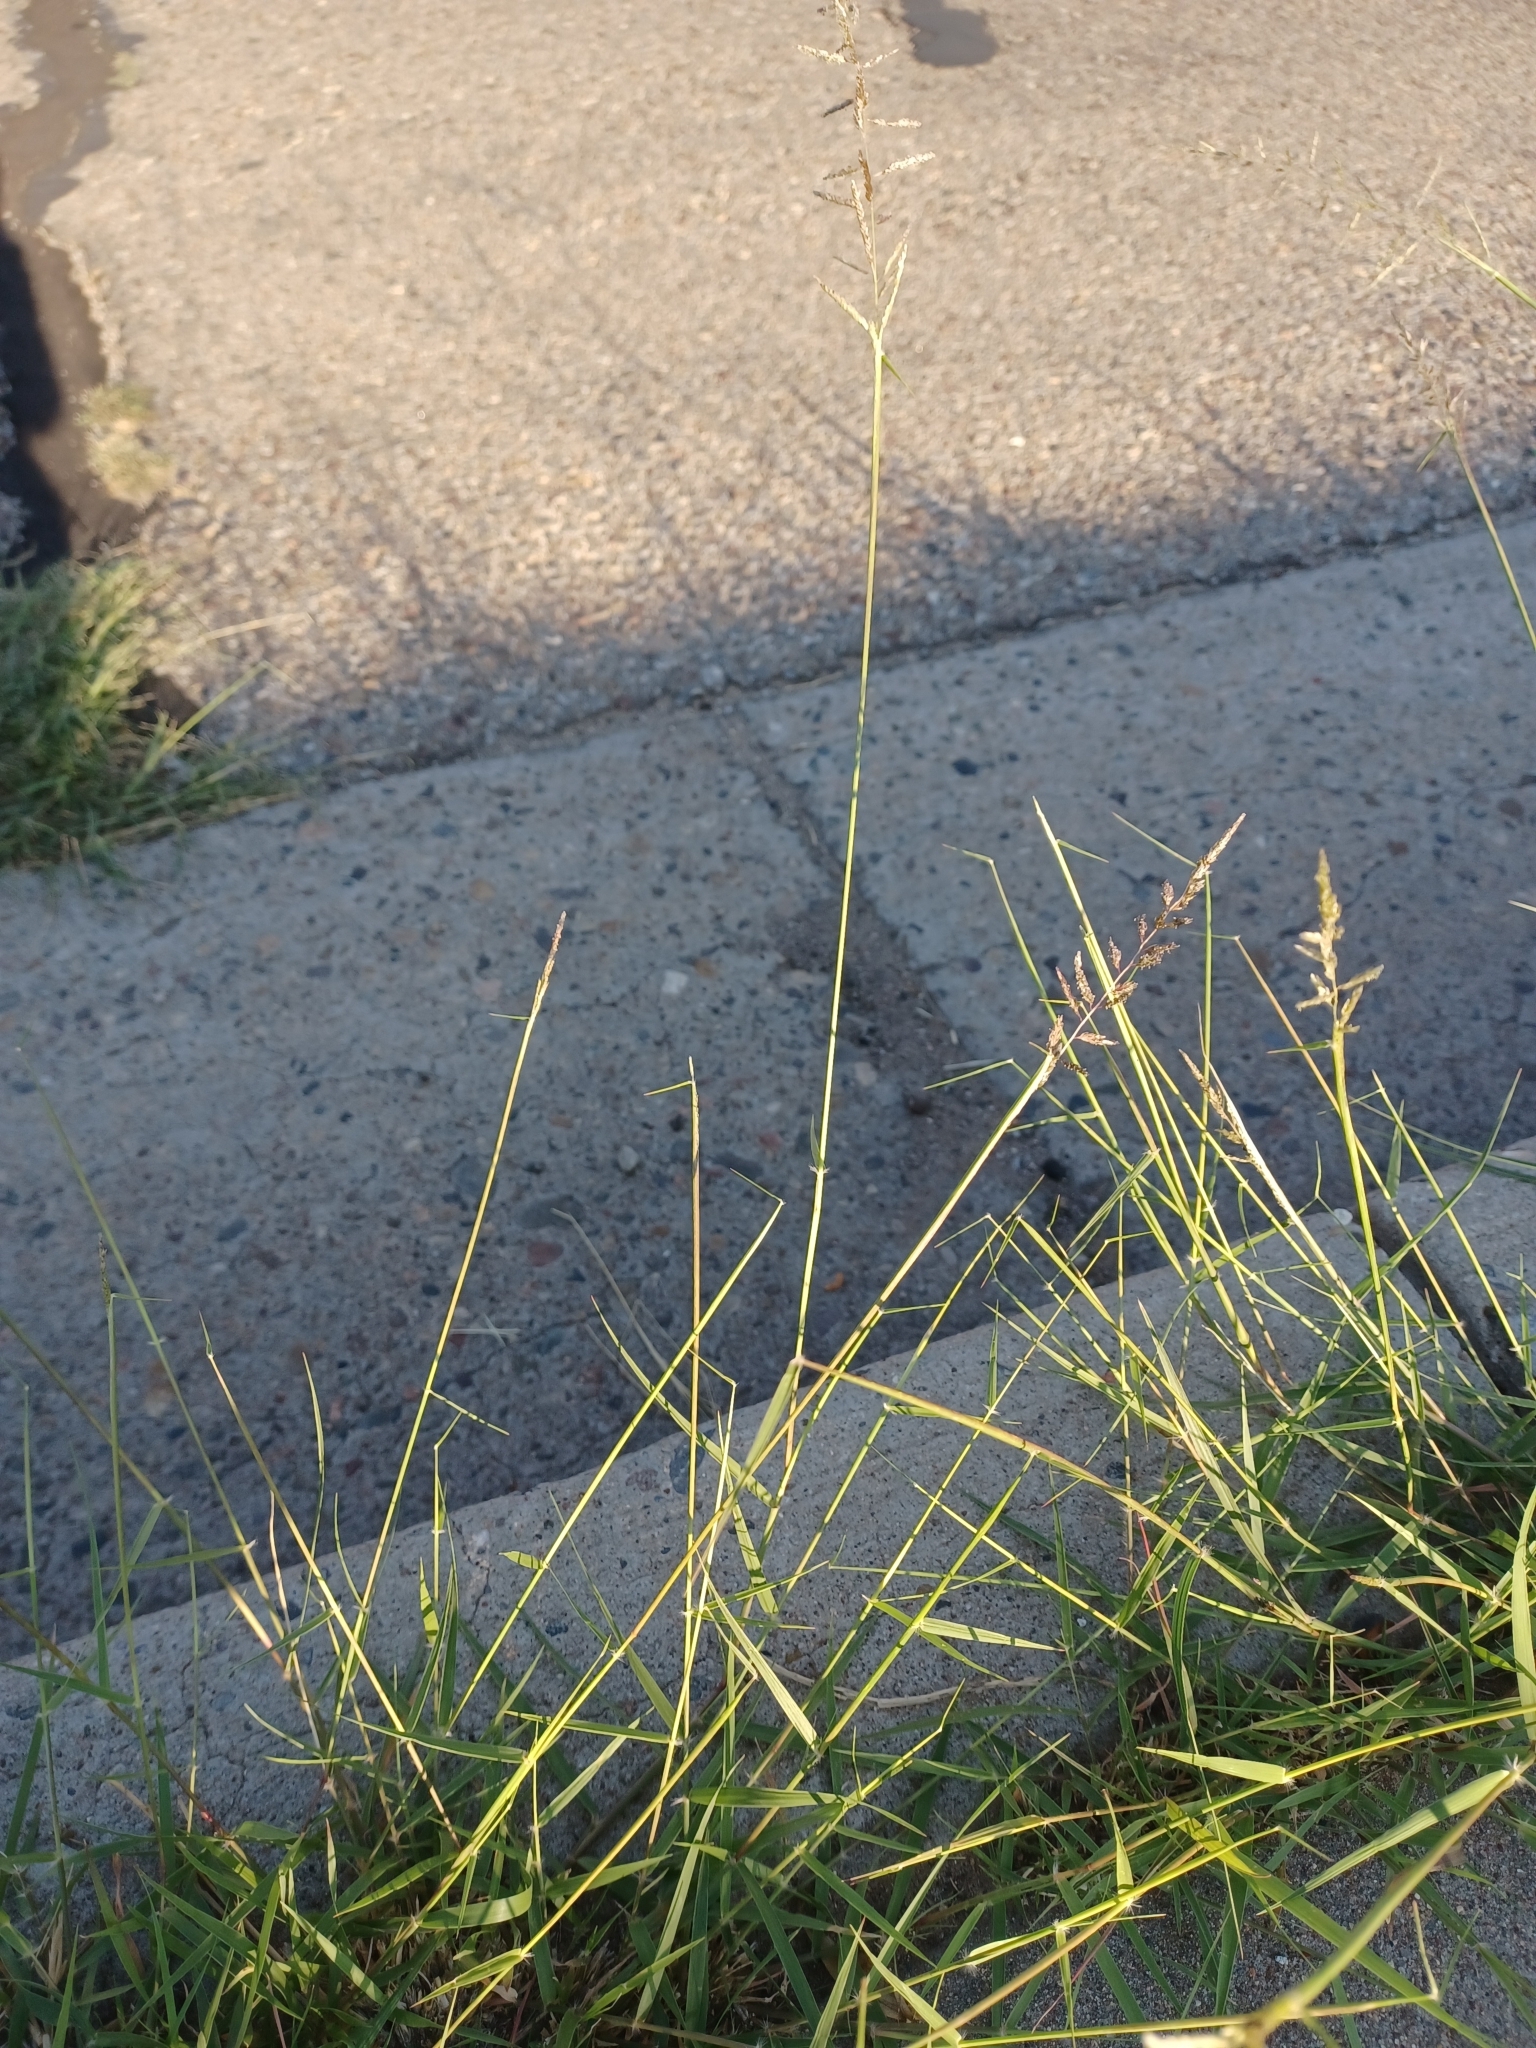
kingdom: Plantae
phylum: Tracheophyta
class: Liliopsida
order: Poales
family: Poaceae
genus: Sporobolus
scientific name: Sporobolus cryptandrus
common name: Sand dropseed
